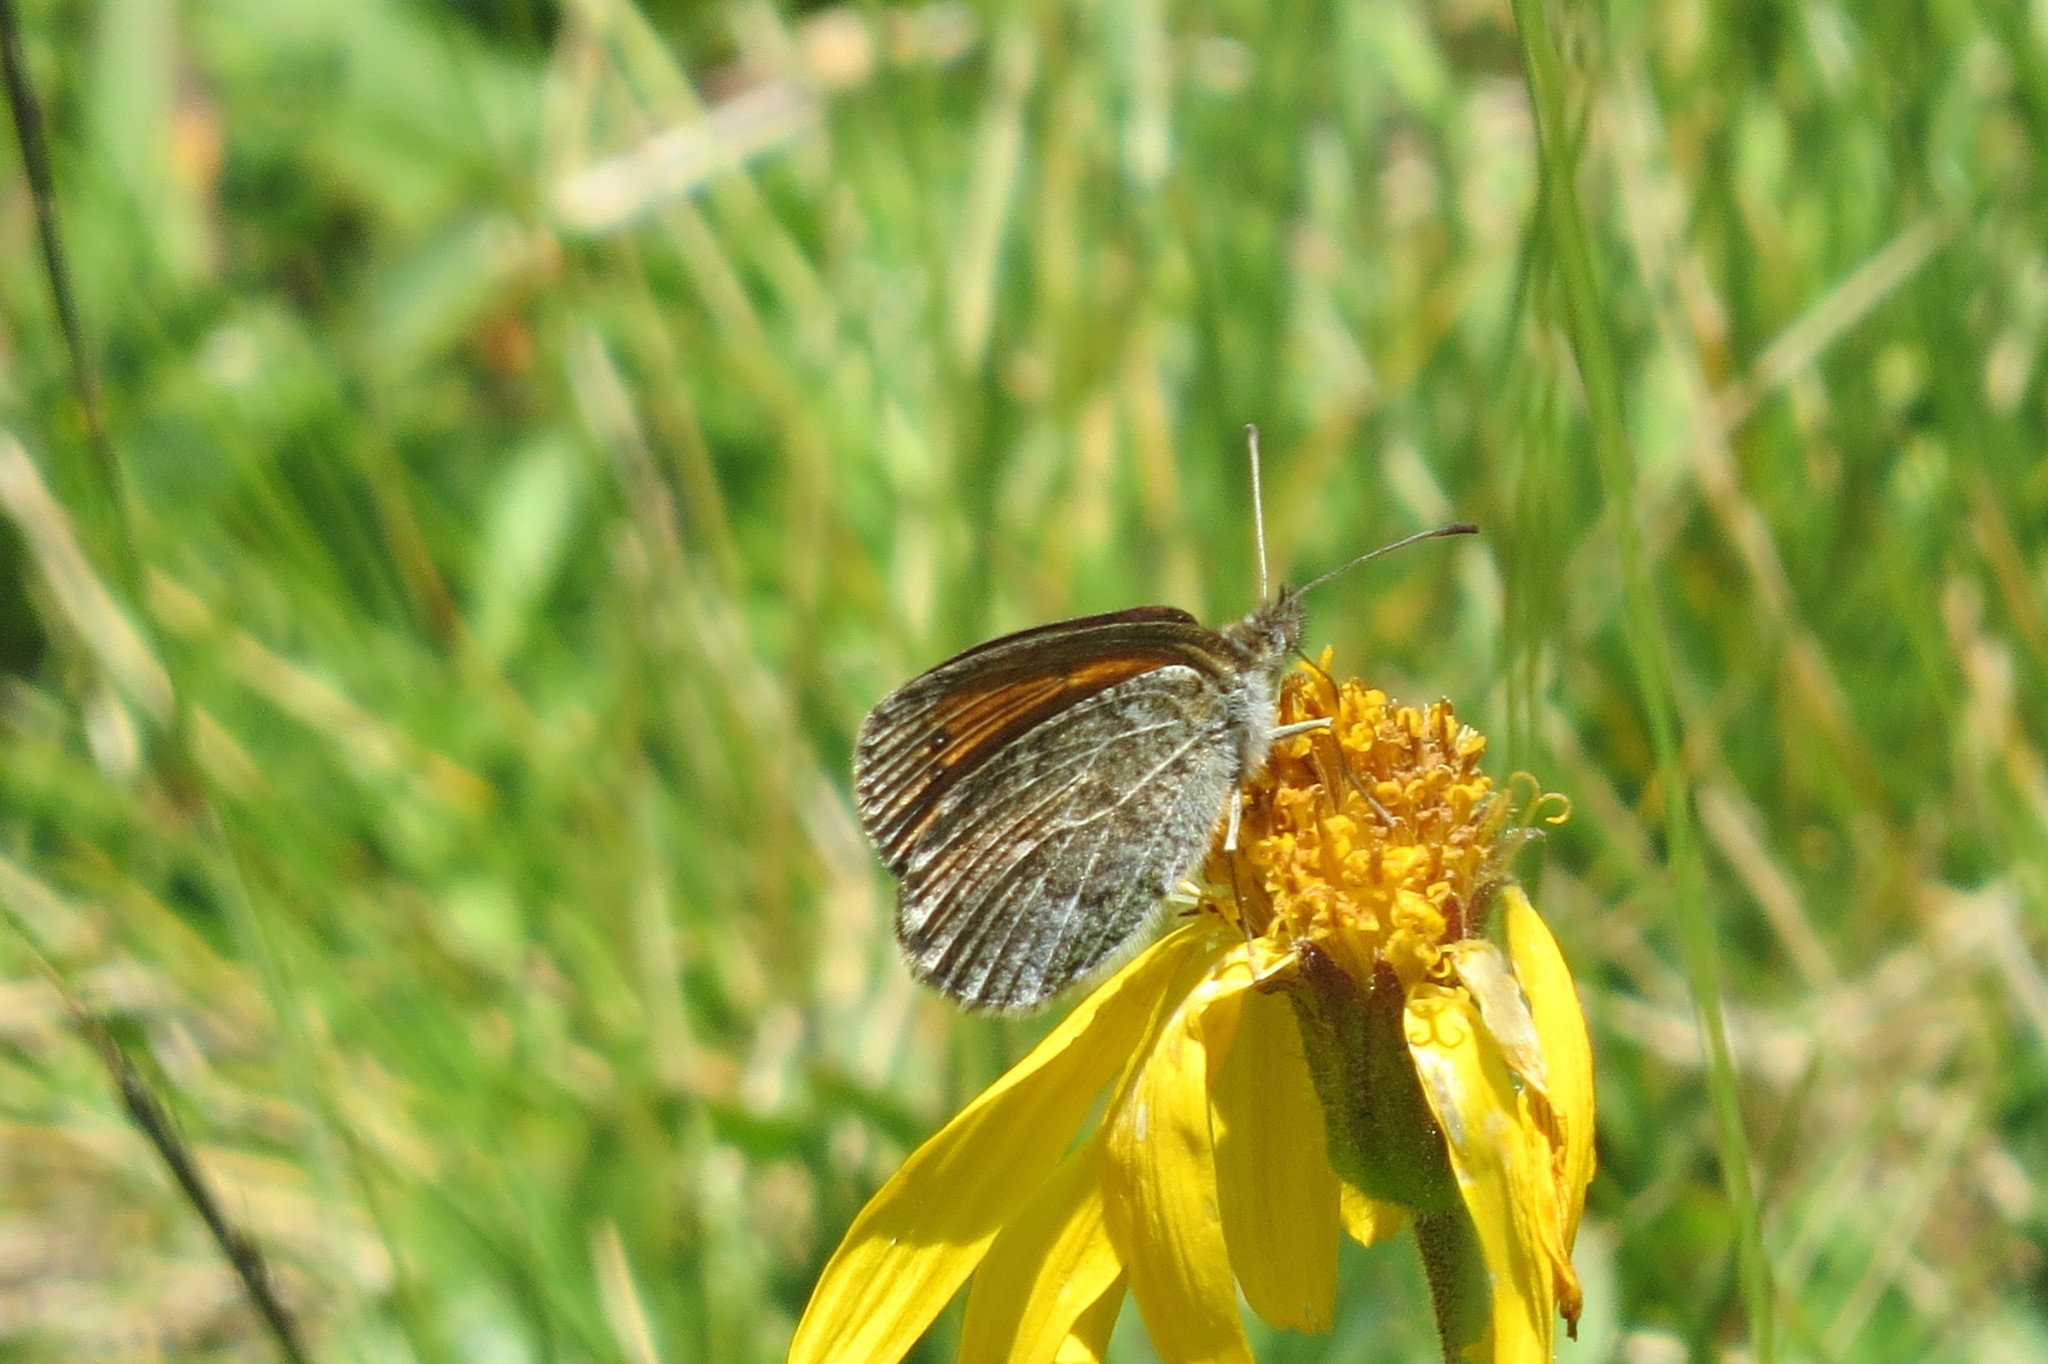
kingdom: Animalia
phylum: Arthropoda
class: Insecta
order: Lepidoptera
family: Nymphalidae
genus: Erebia
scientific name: Erebia tyndarus
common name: Swiss brassy ringlet
